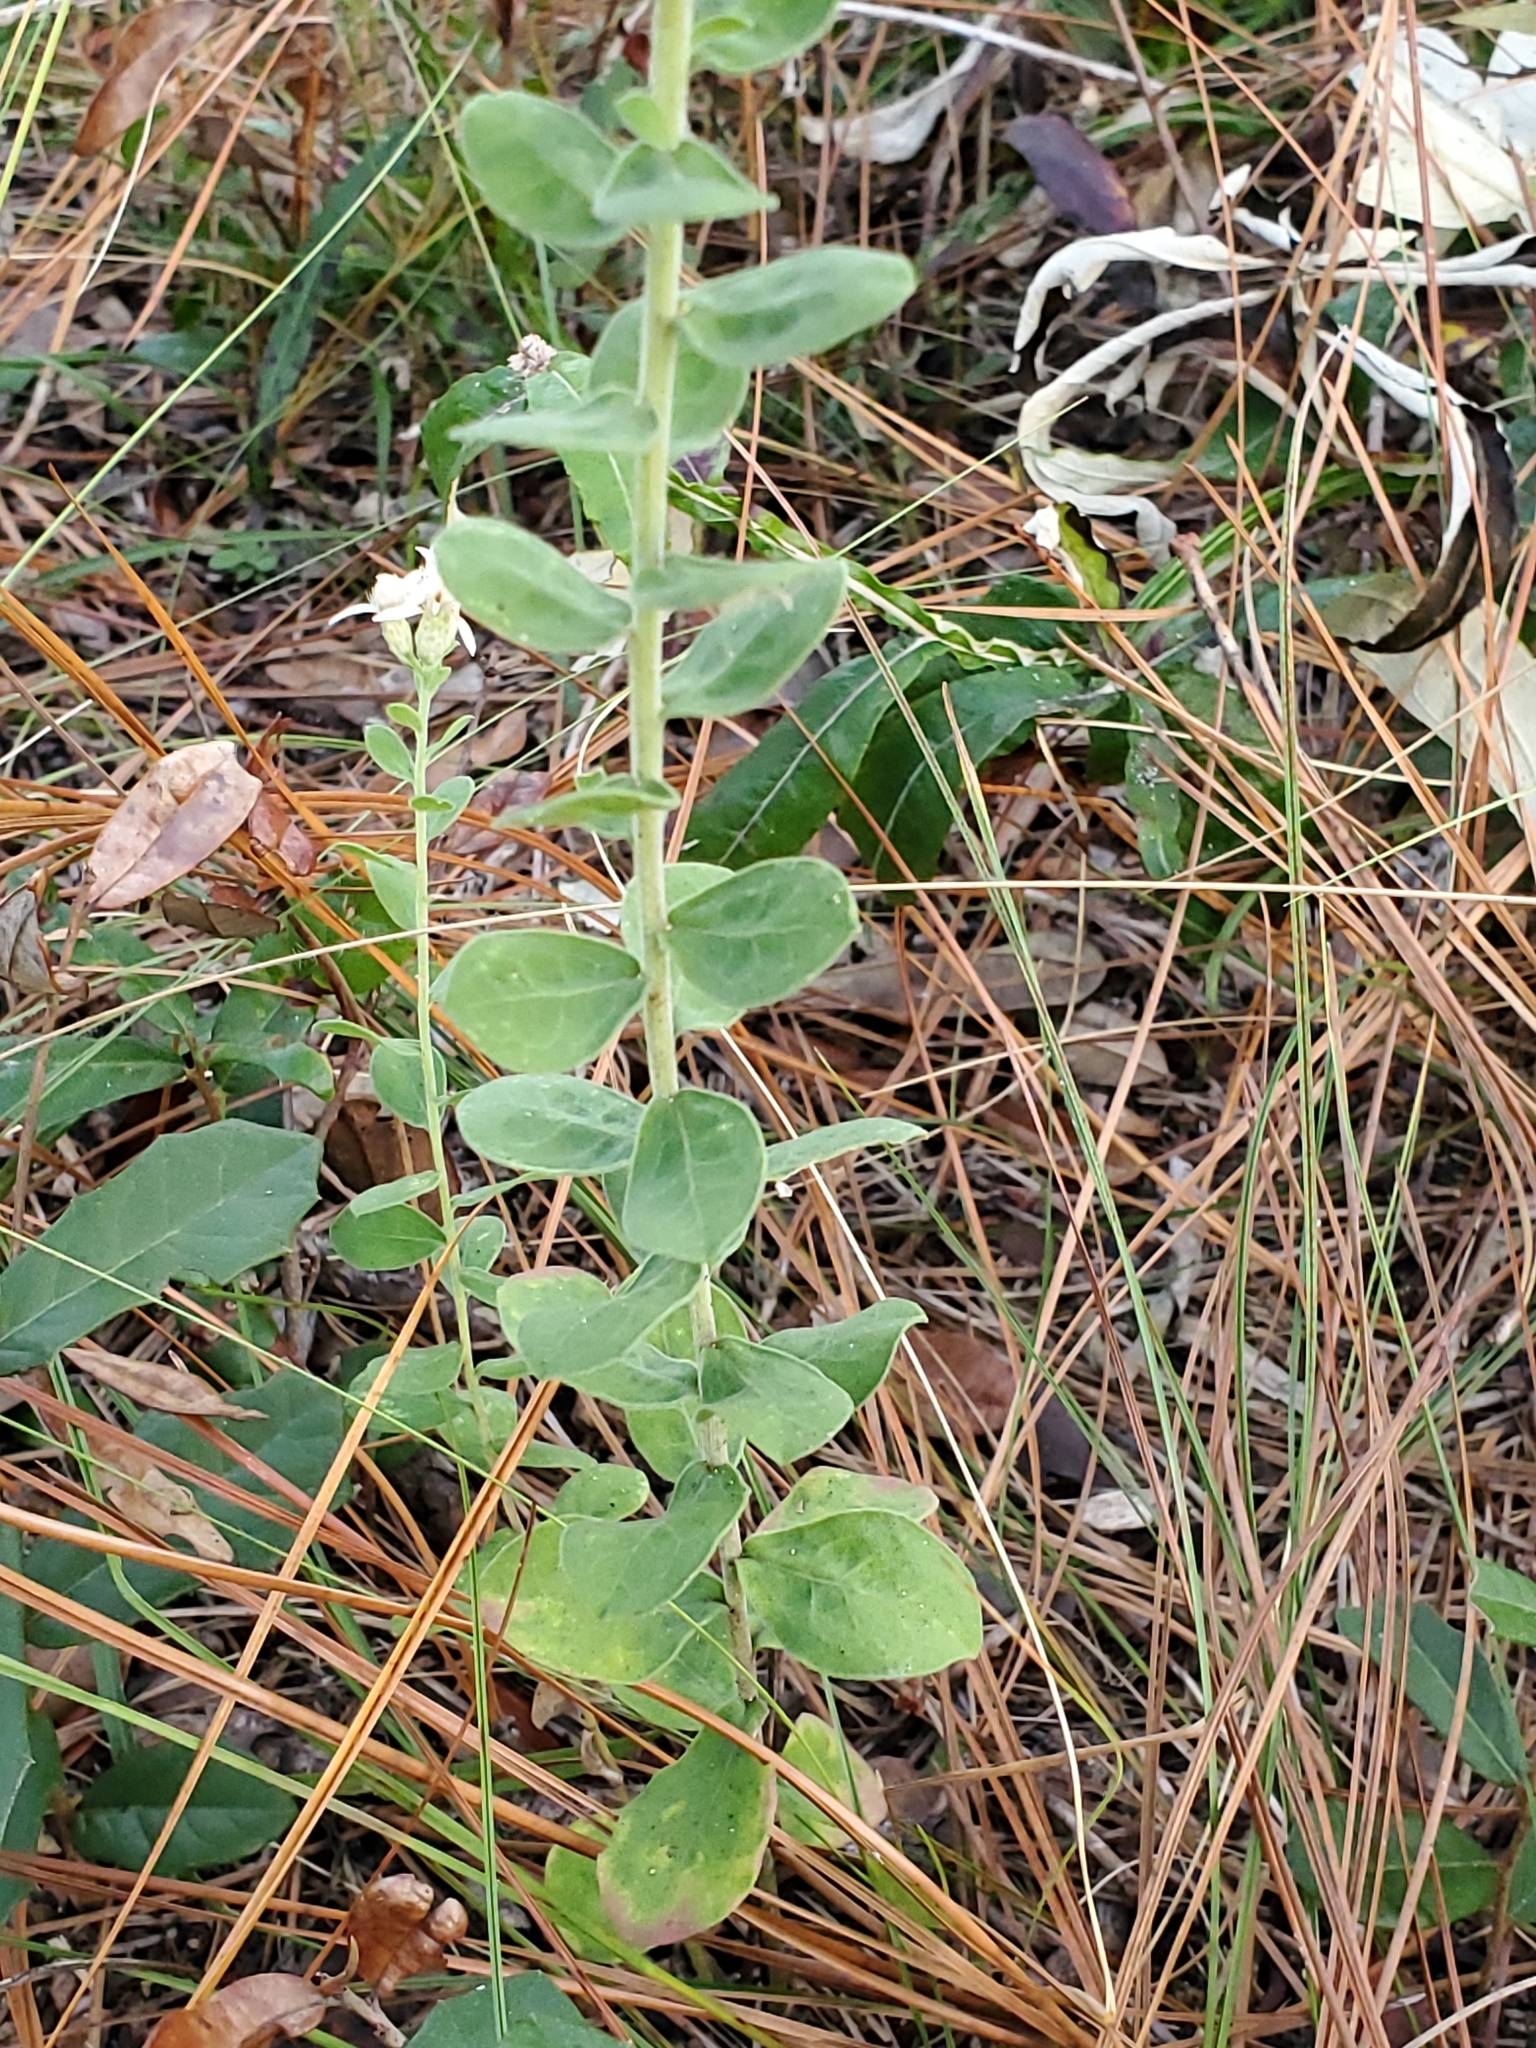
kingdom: Plantae
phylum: Tracheophyta
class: Magnoliopsida
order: Asterales
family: Asteraceae
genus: Sericocarpus
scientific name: Sericocarpus tortifolius
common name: Dixie aster
